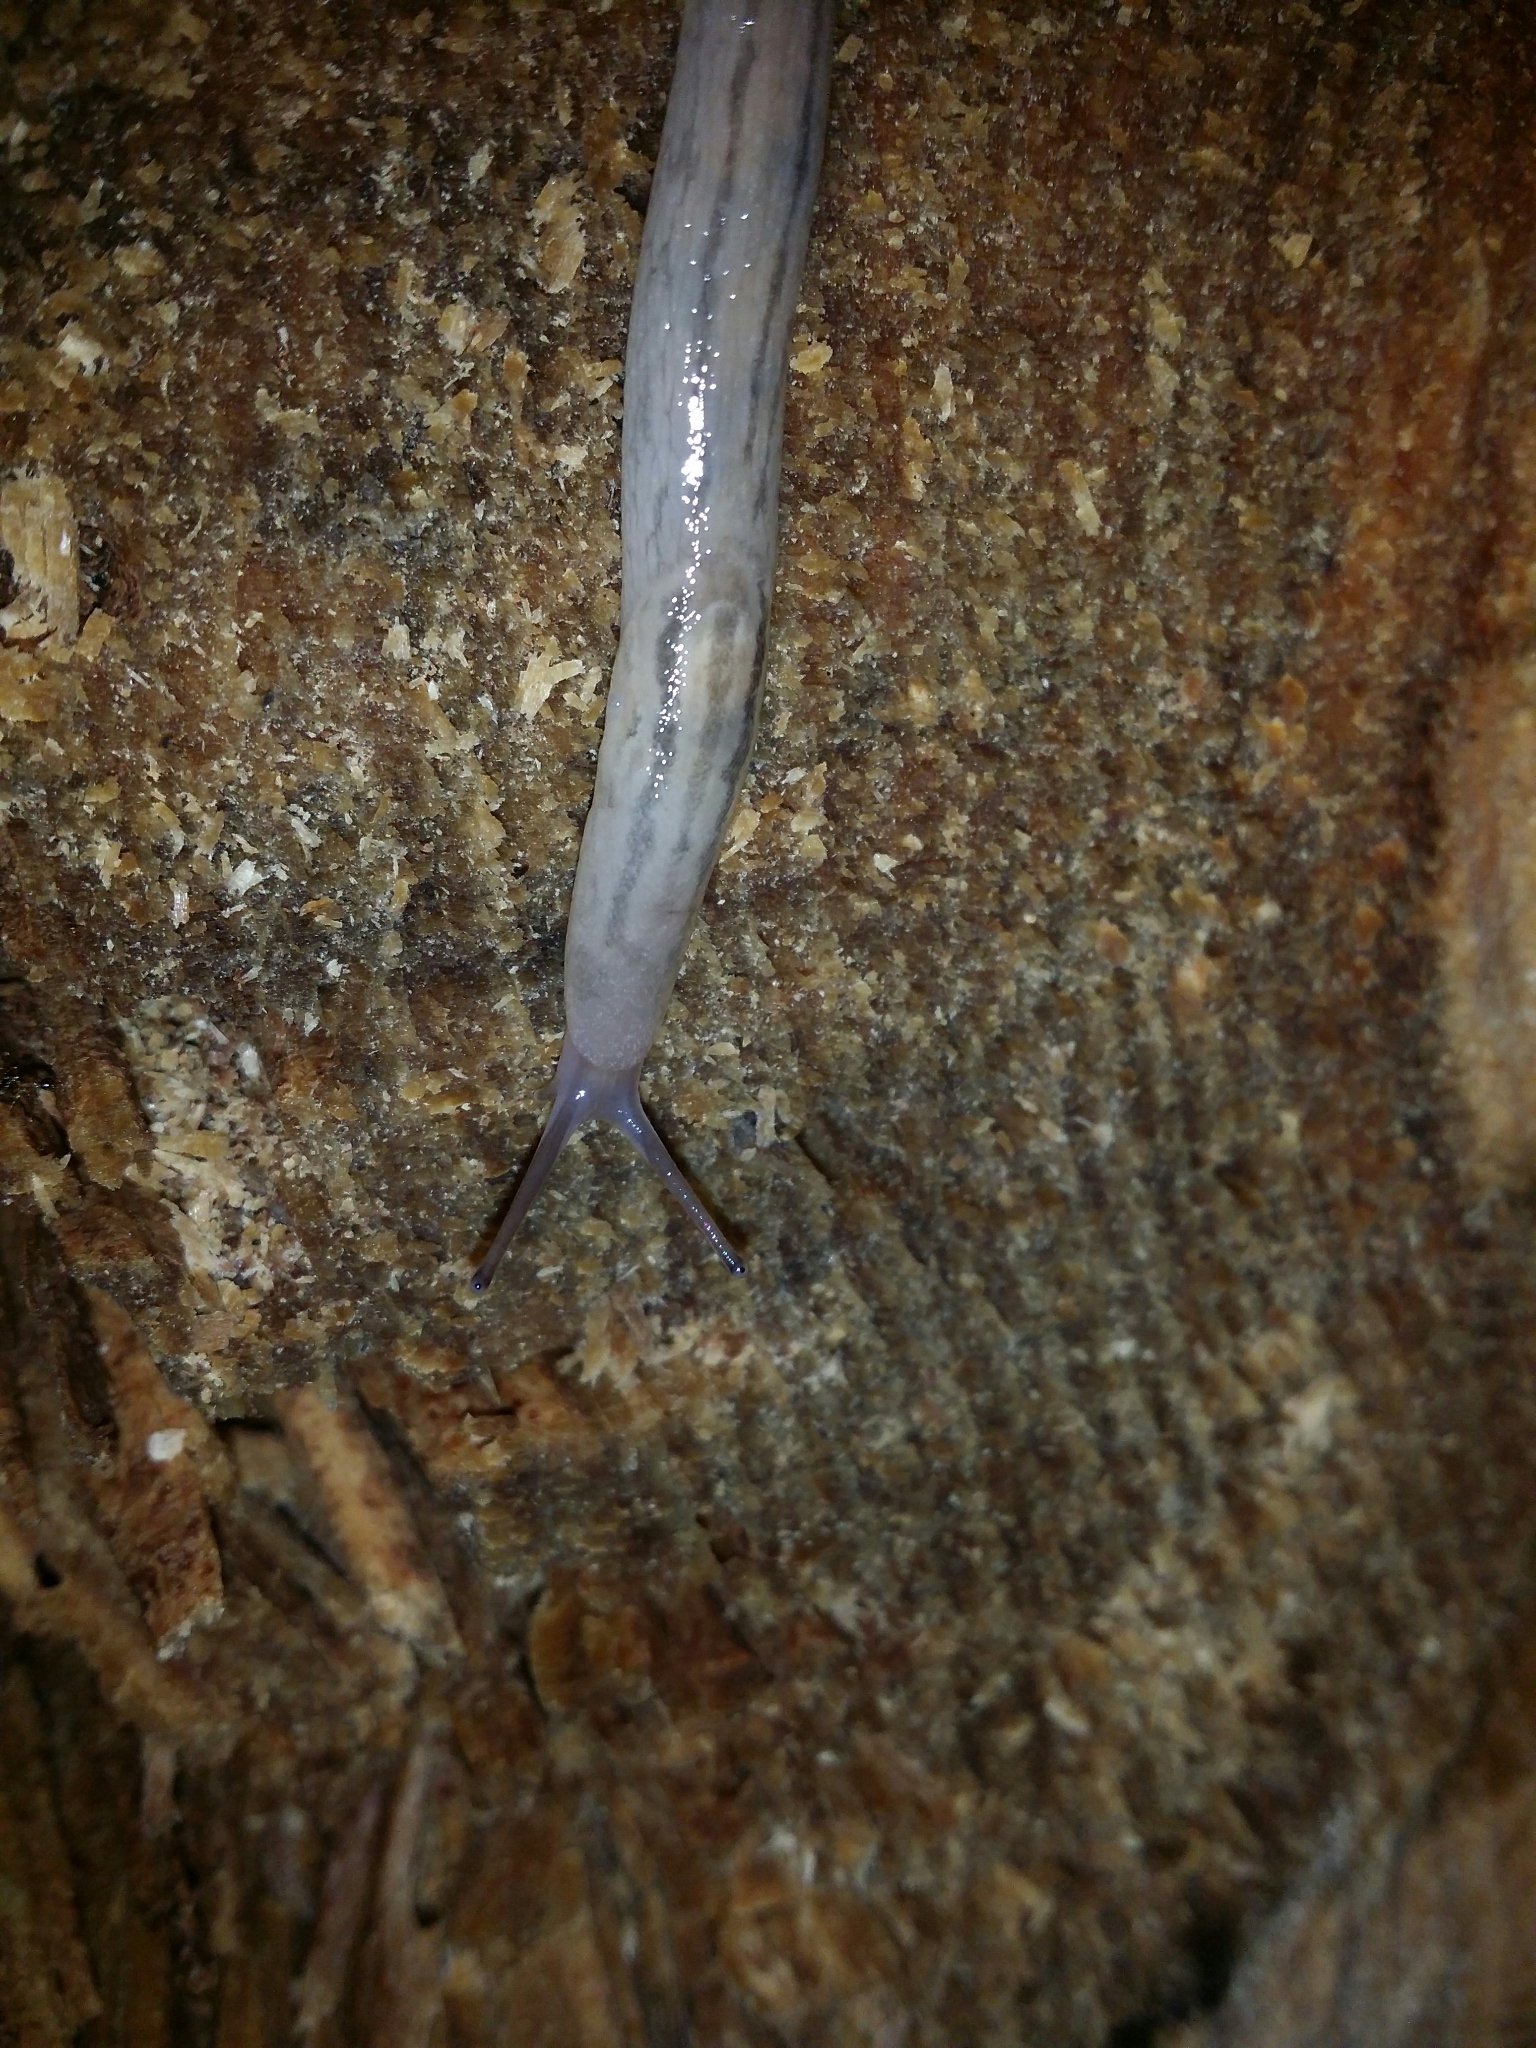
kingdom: Animalia
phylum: Mollusca
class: Gastropoda
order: Stylommatophora
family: Limacidae
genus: Ambigolimax
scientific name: Ambigolimax
